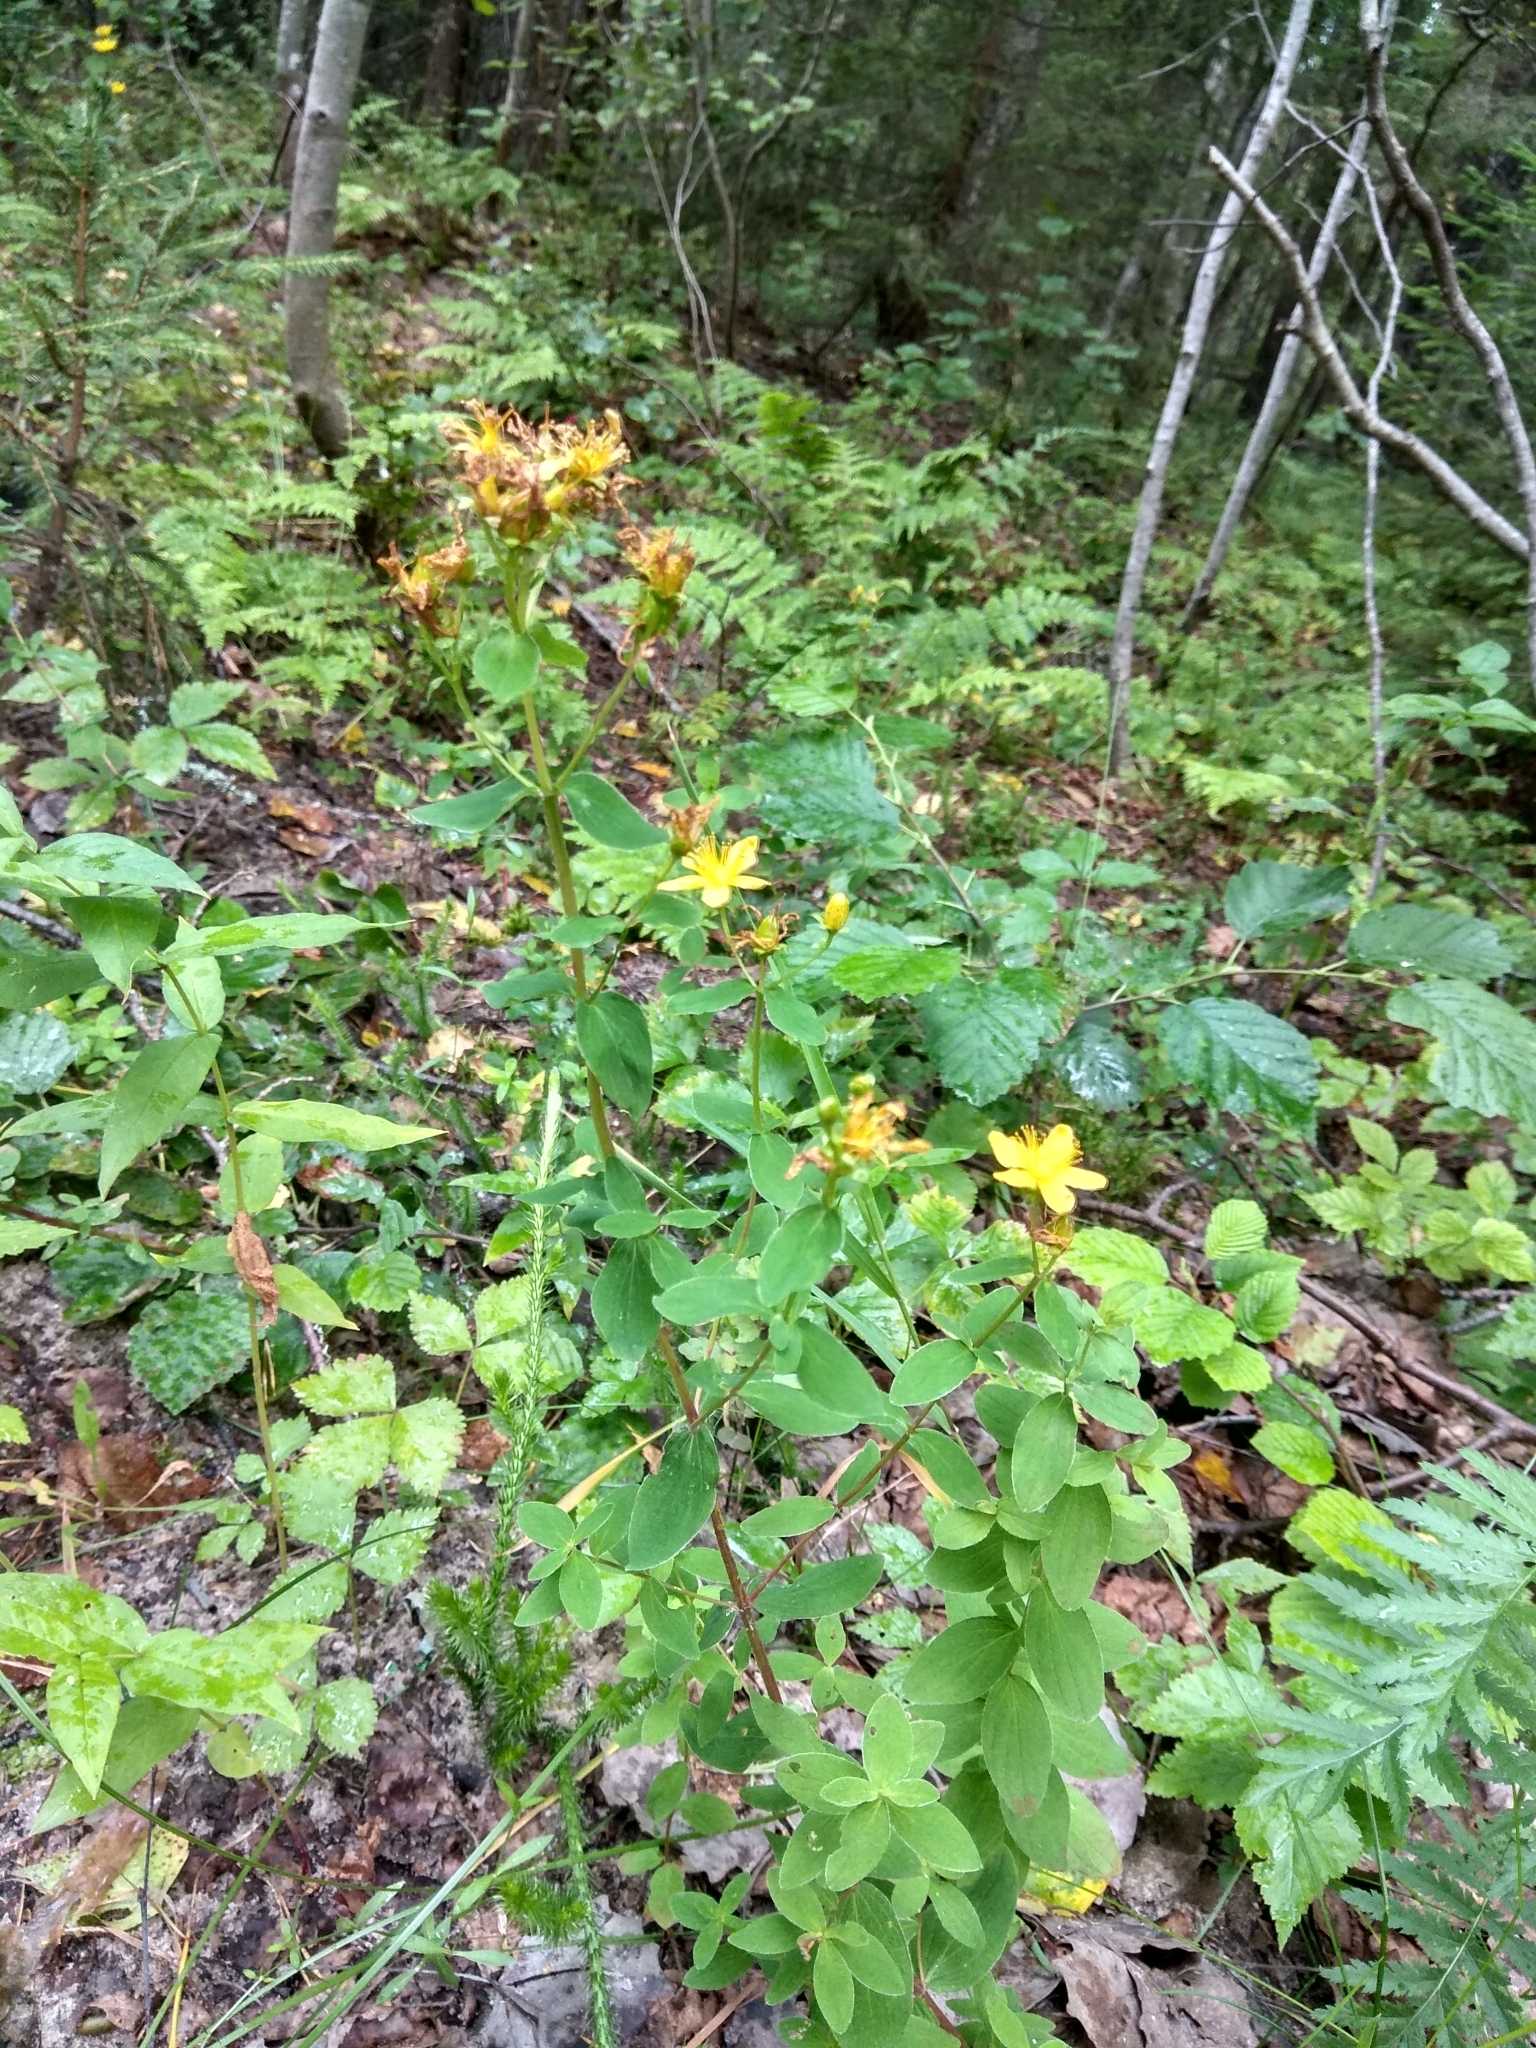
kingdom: Plantae
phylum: Tracheophyta
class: Magnoliopsida
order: Malpighiales
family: Hypericaceae
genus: Hypericum
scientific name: Hypericum maculatum
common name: Imperforate st. john's-wort
